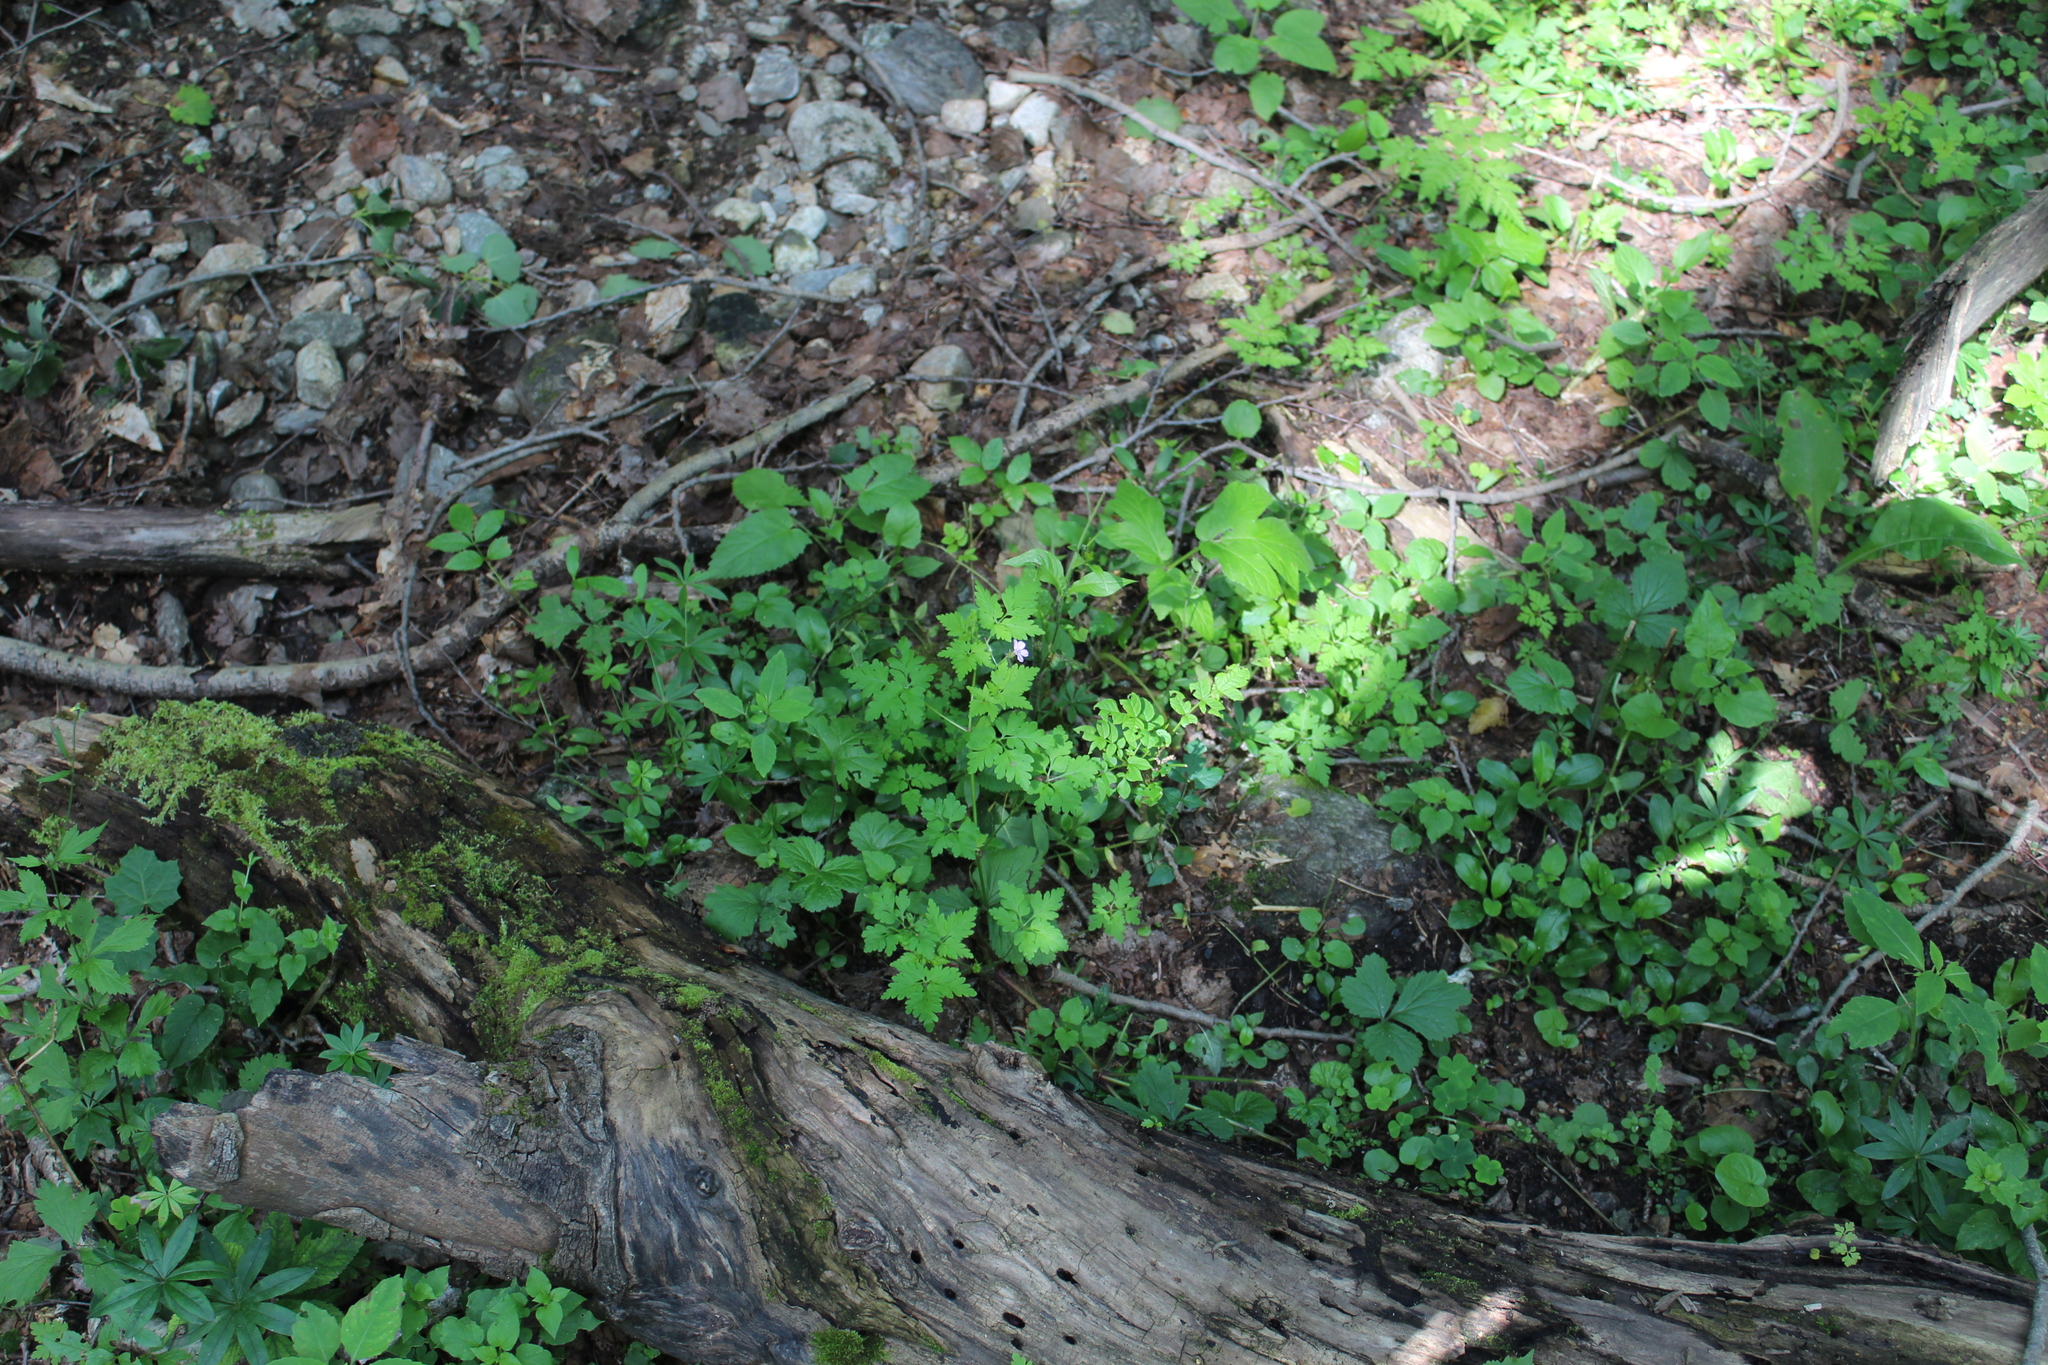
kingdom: Plantae
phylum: Tracheophyta
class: Magnoliopsida
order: Geraniales
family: Geraniaceae
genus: Geranium
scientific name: Geranium robertianum
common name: Herb-robert
